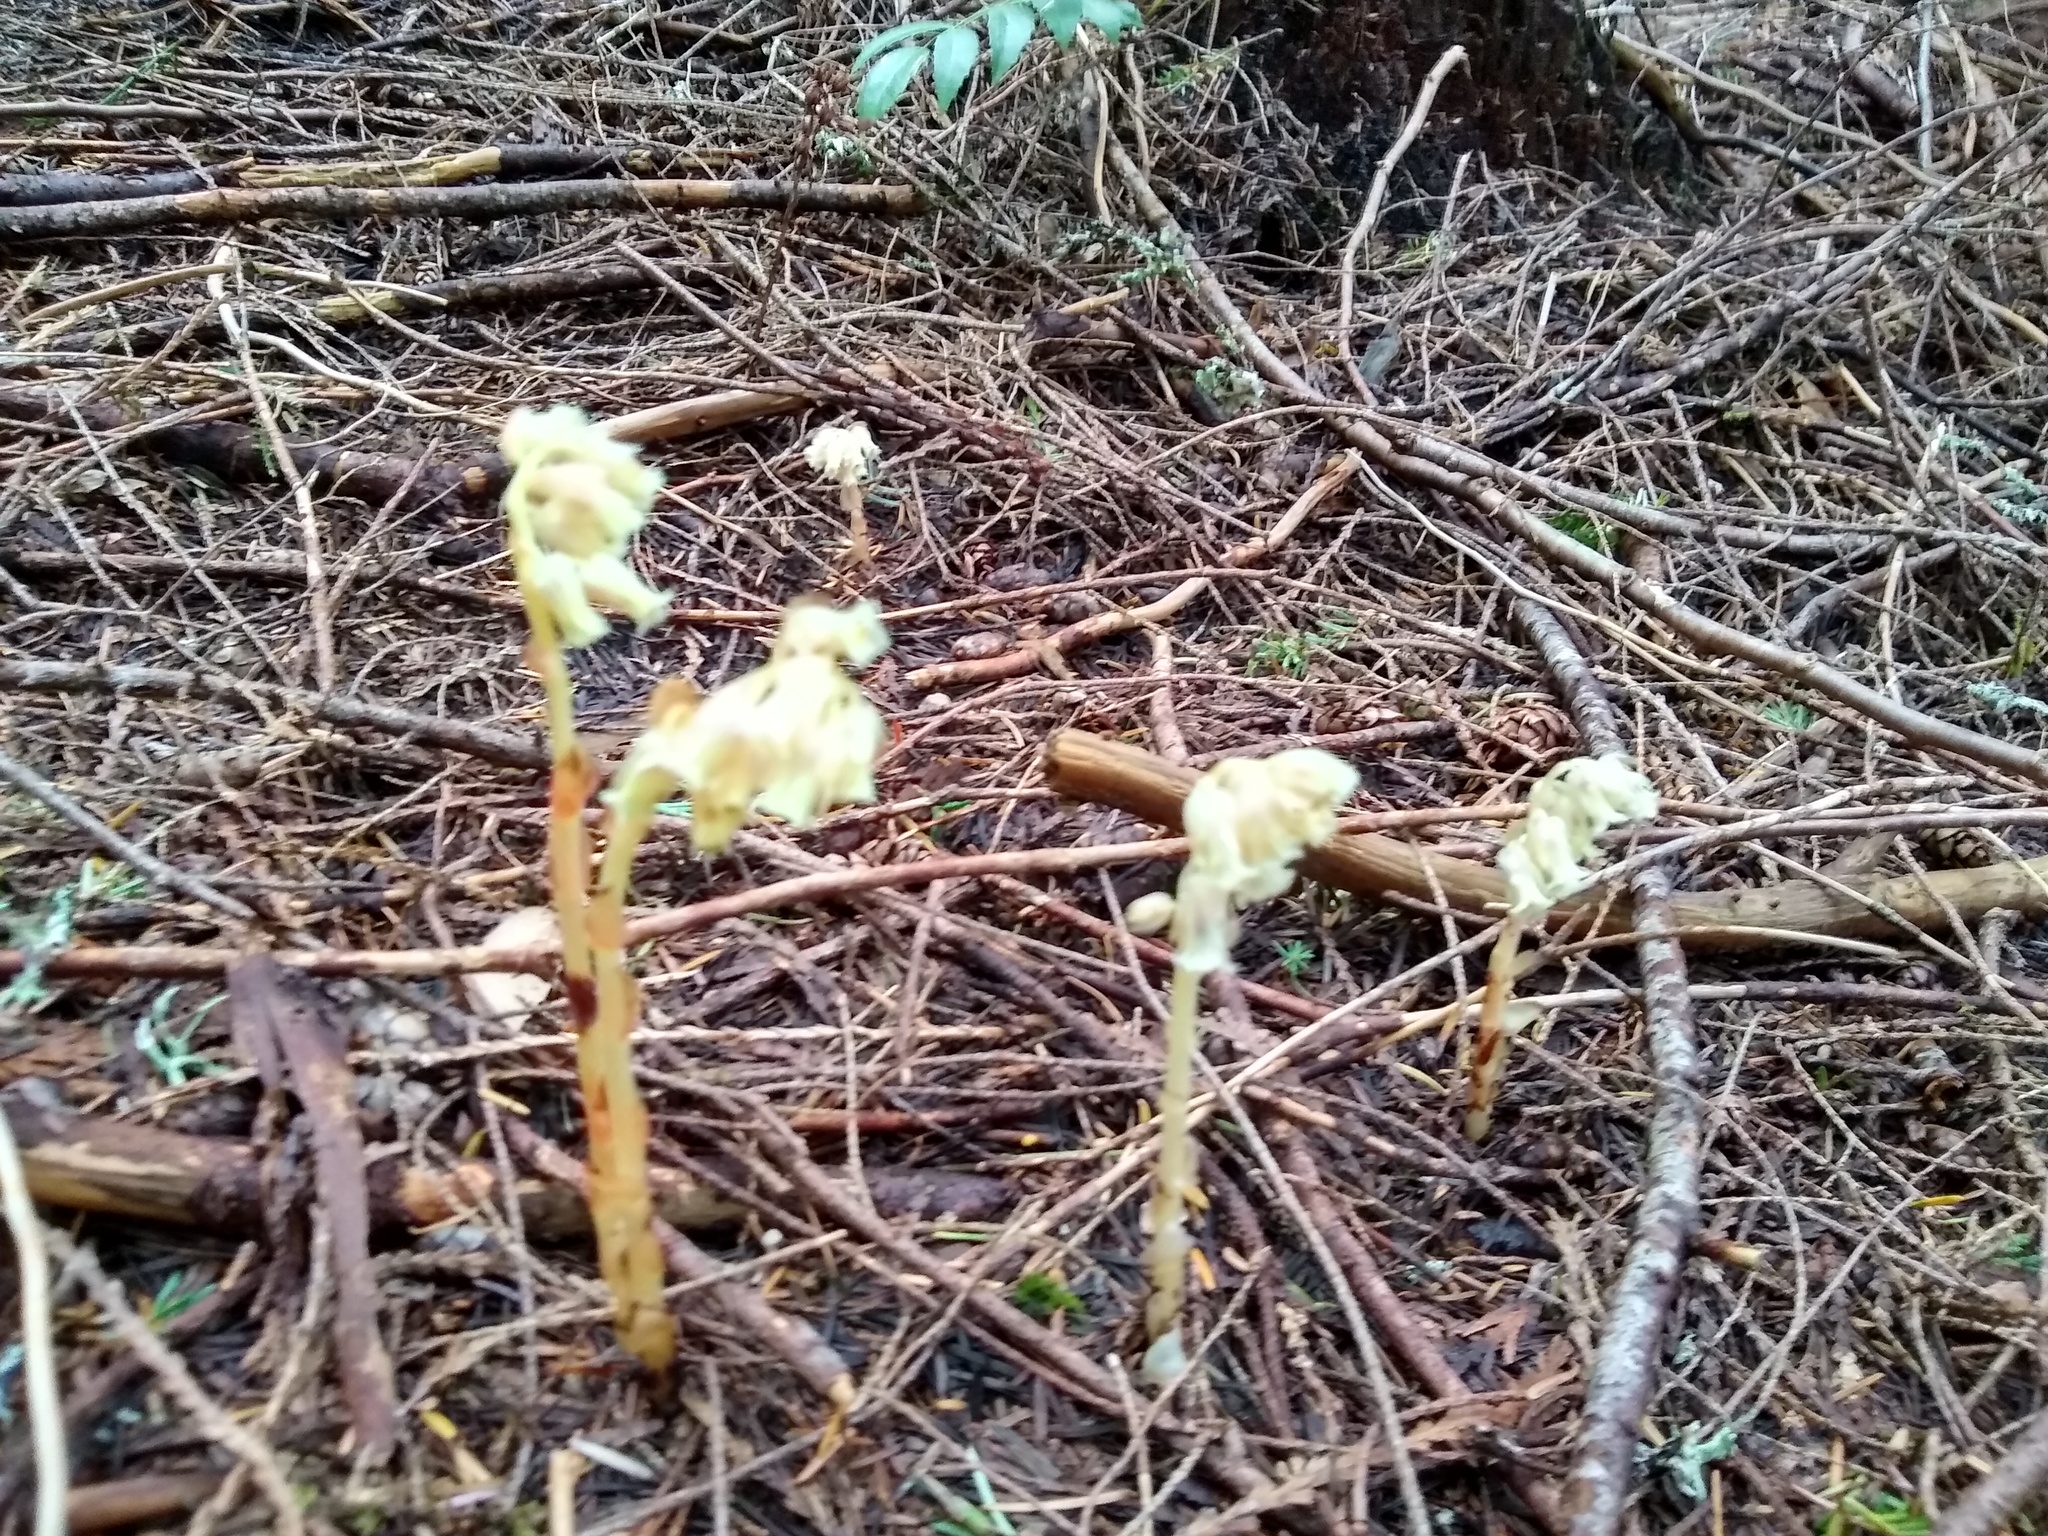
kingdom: Plantae
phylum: Tracheophyta
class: Magnoliopsida
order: Ericales
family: Ericaceae
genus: Hypopitys
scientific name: Hypopitys monotropa
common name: Yellow bird's-nest
